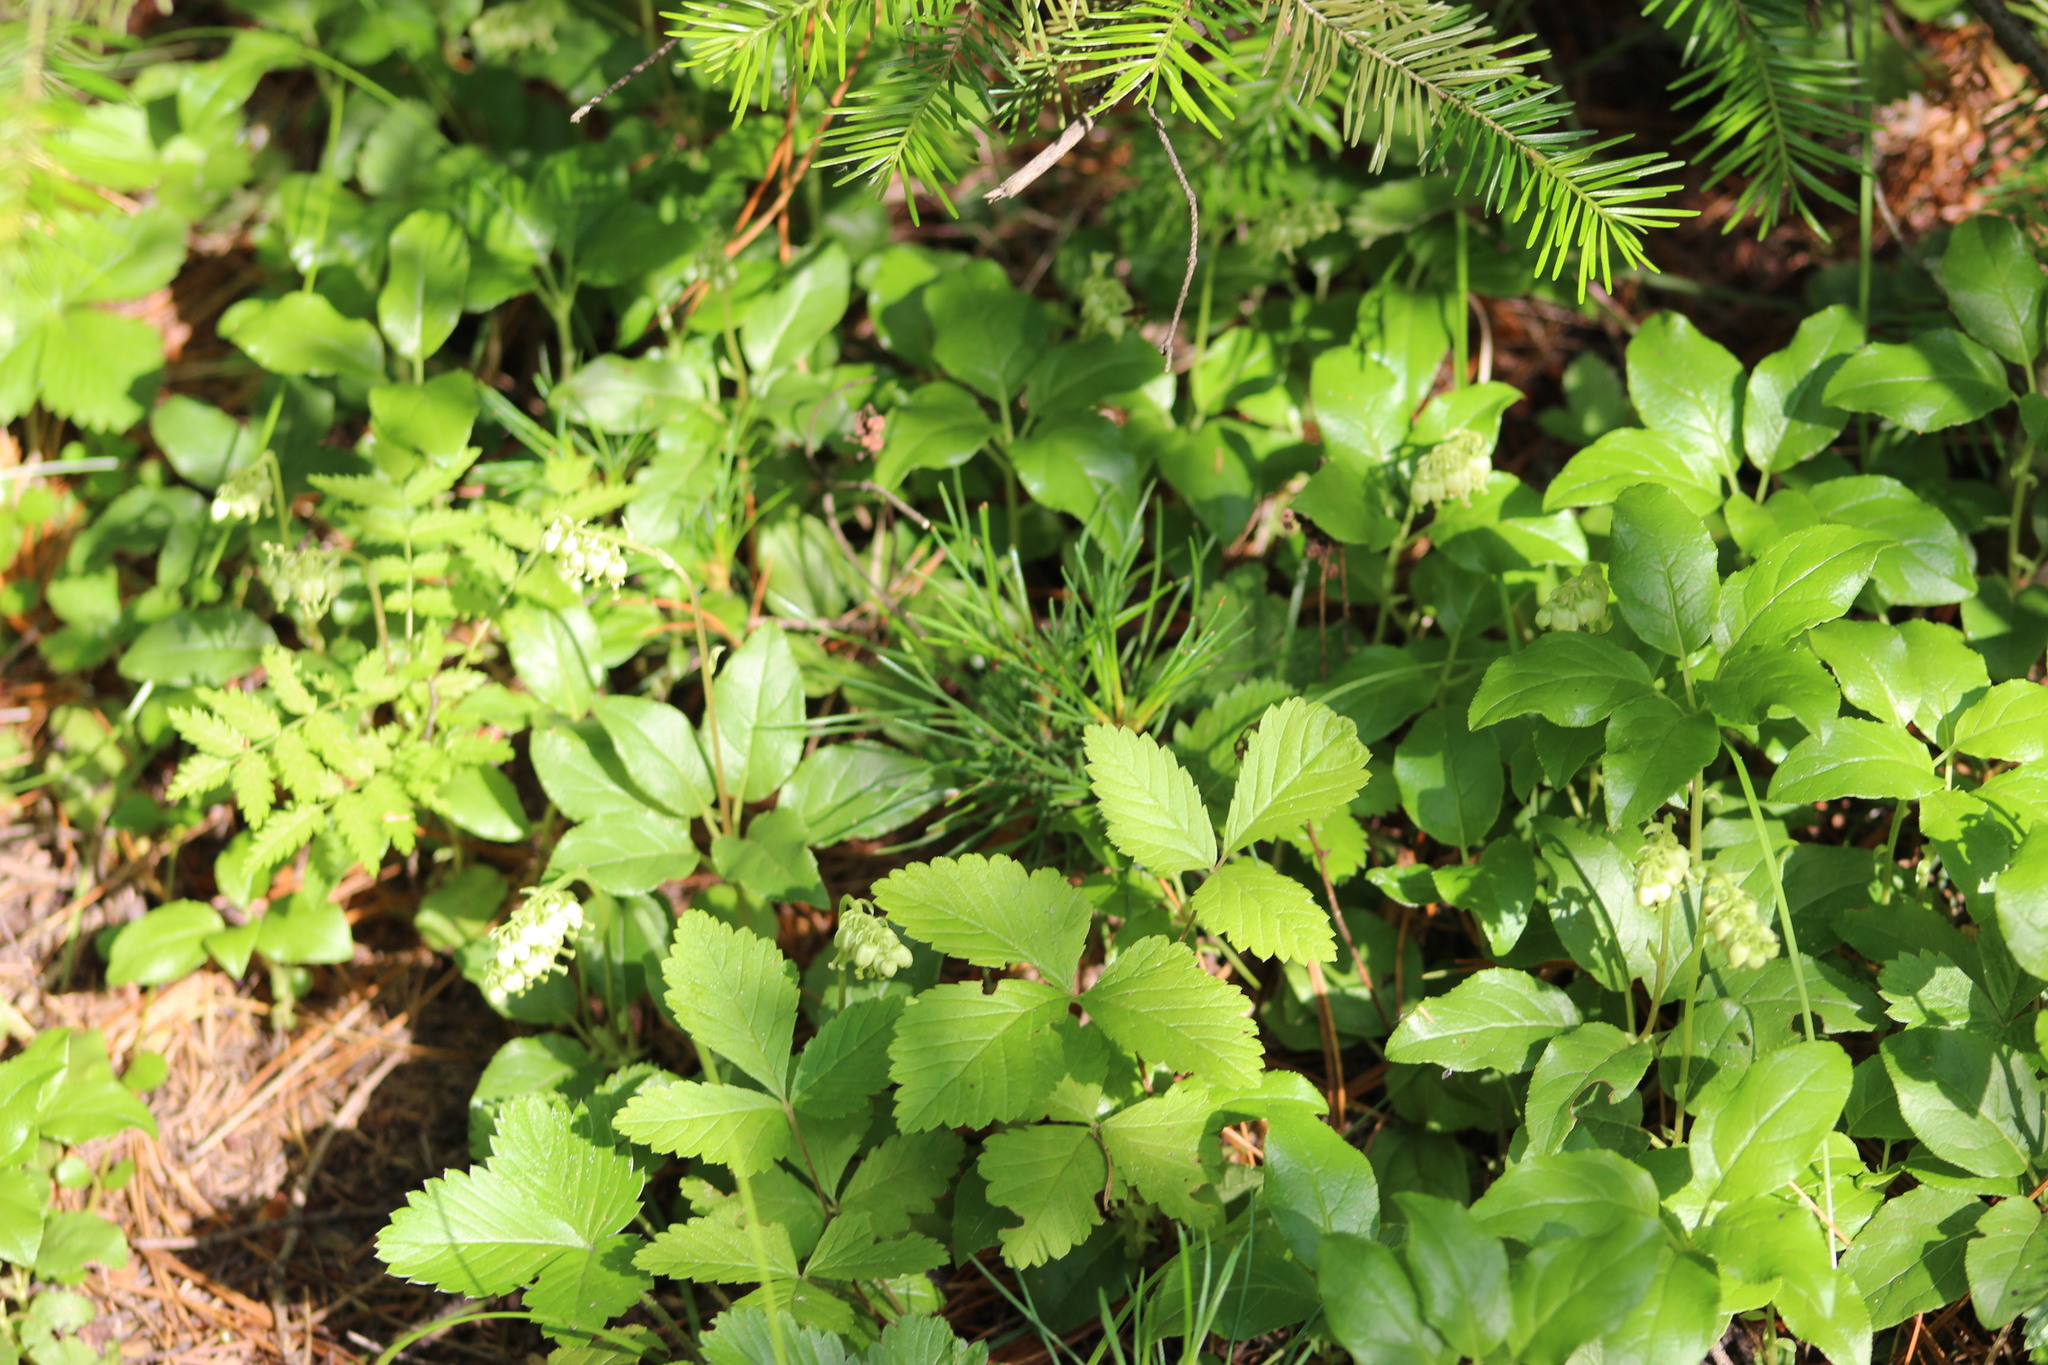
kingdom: Plantae
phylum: Tracheophyta
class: Magnoliopsida
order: Rosales
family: Rosaceae
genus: Rubus
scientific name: Rubus arcticus
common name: Arctic bramble
